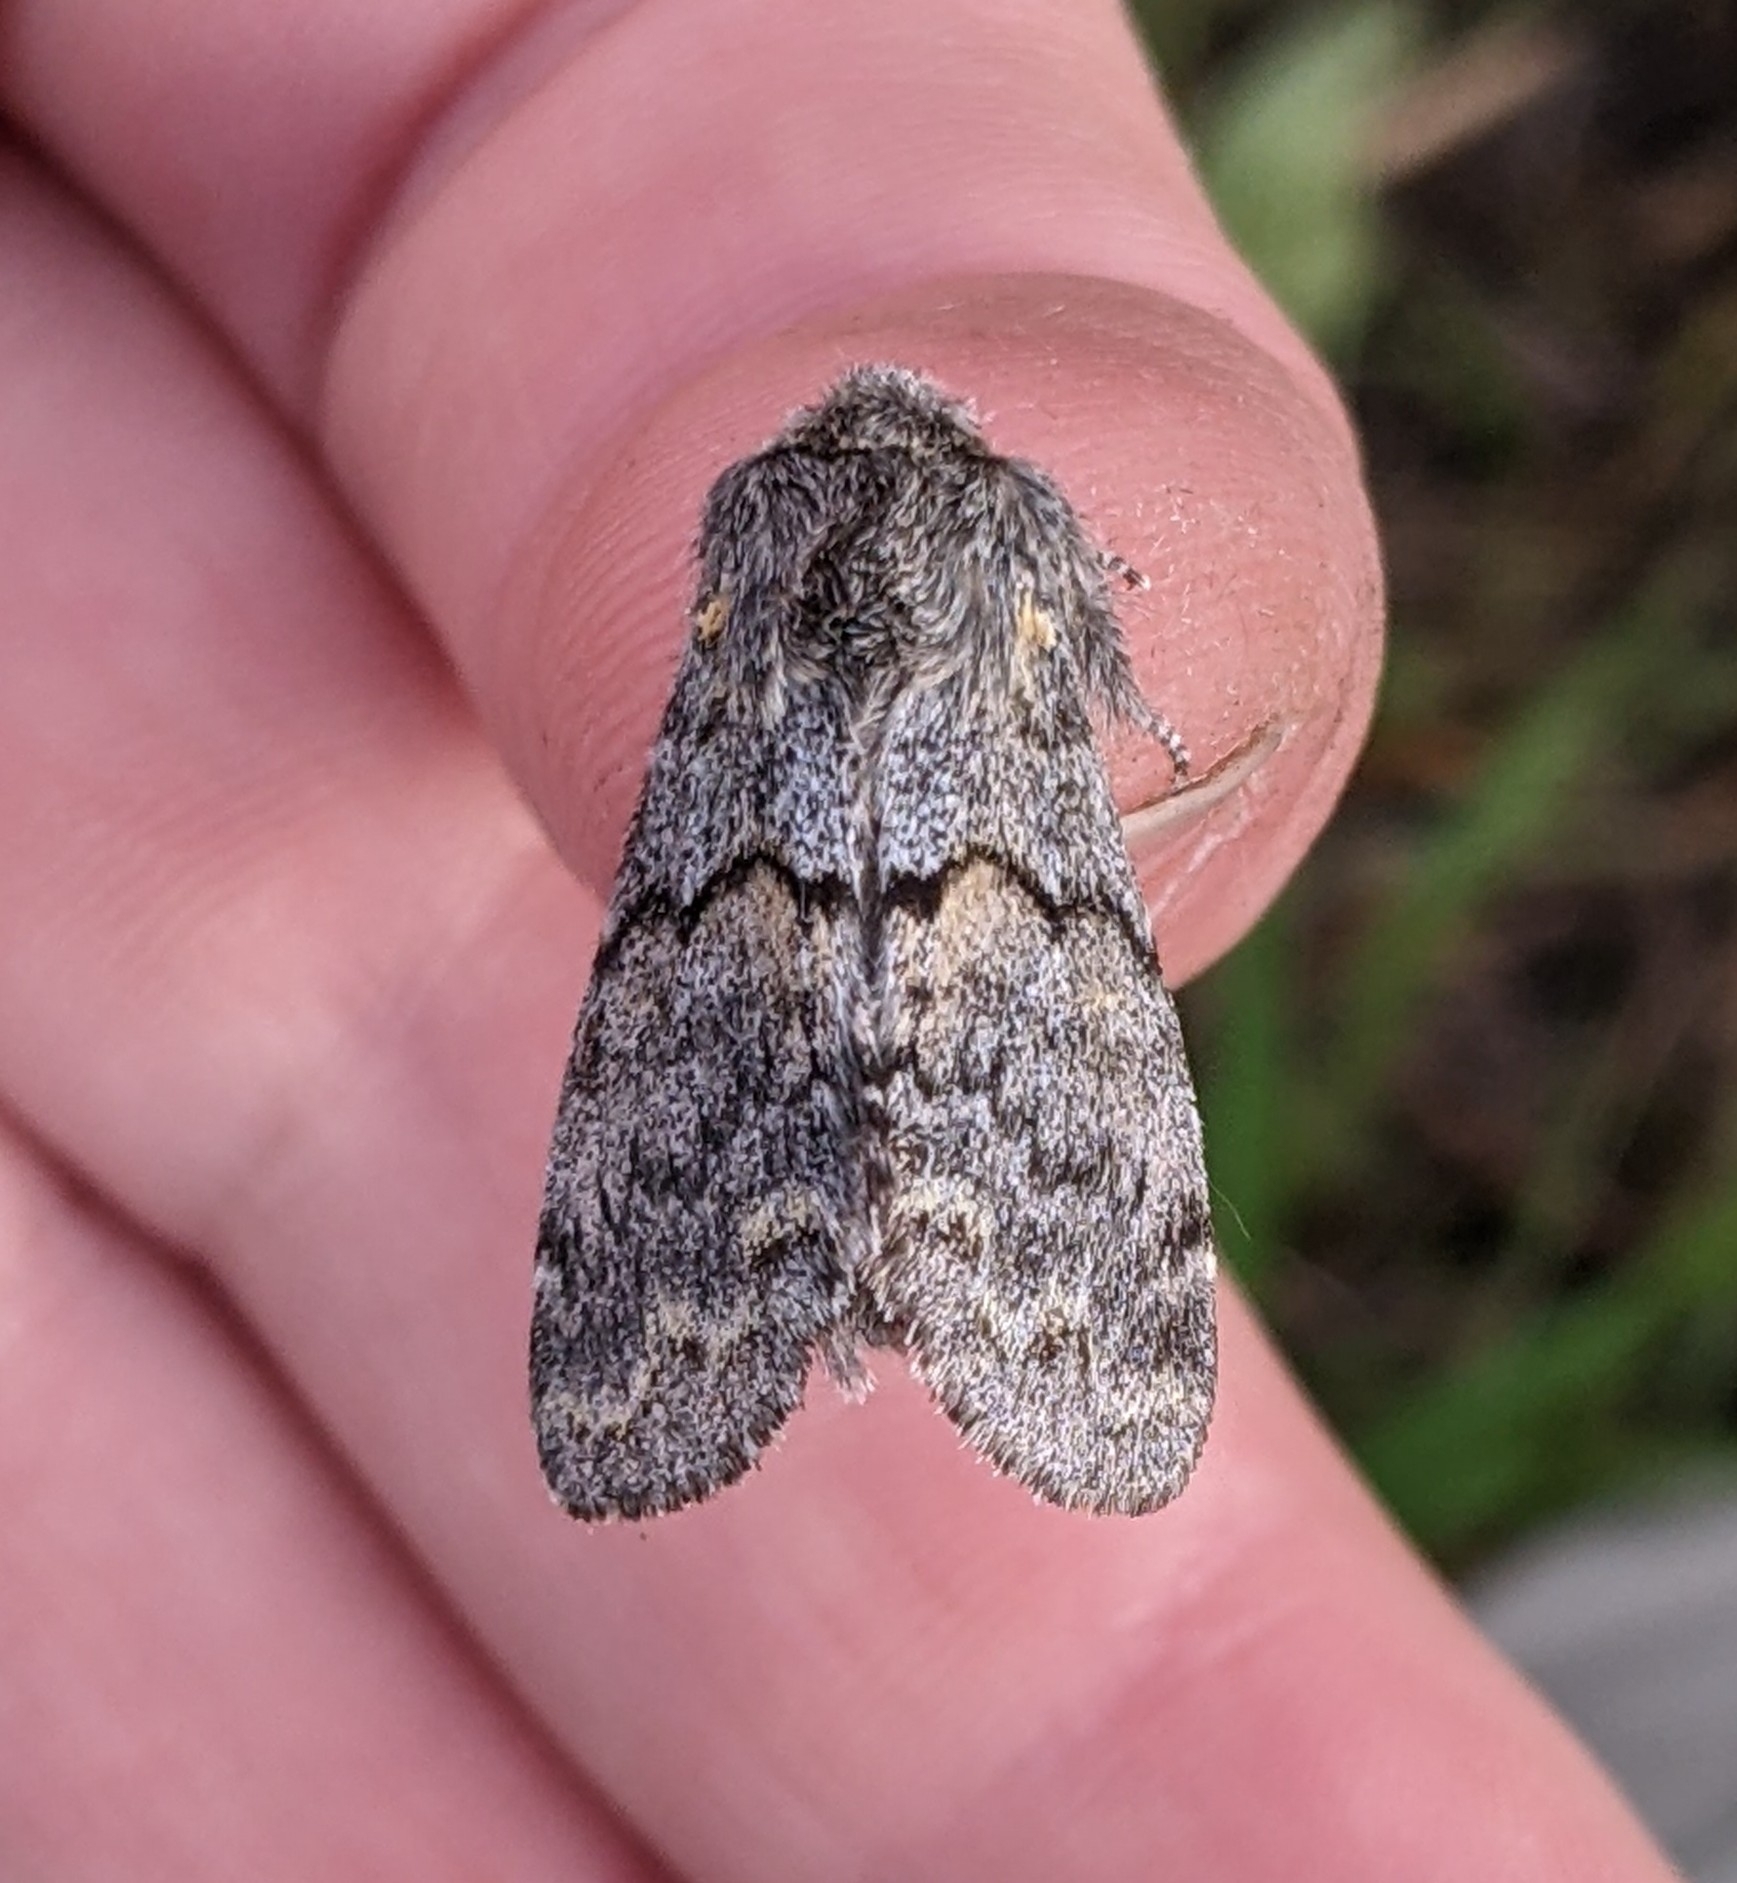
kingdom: Animalia
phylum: Arthropoda
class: Insecta
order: Lepidoptera
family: Notodontidae
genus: Gluphisia
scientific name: Gluphisia severa
